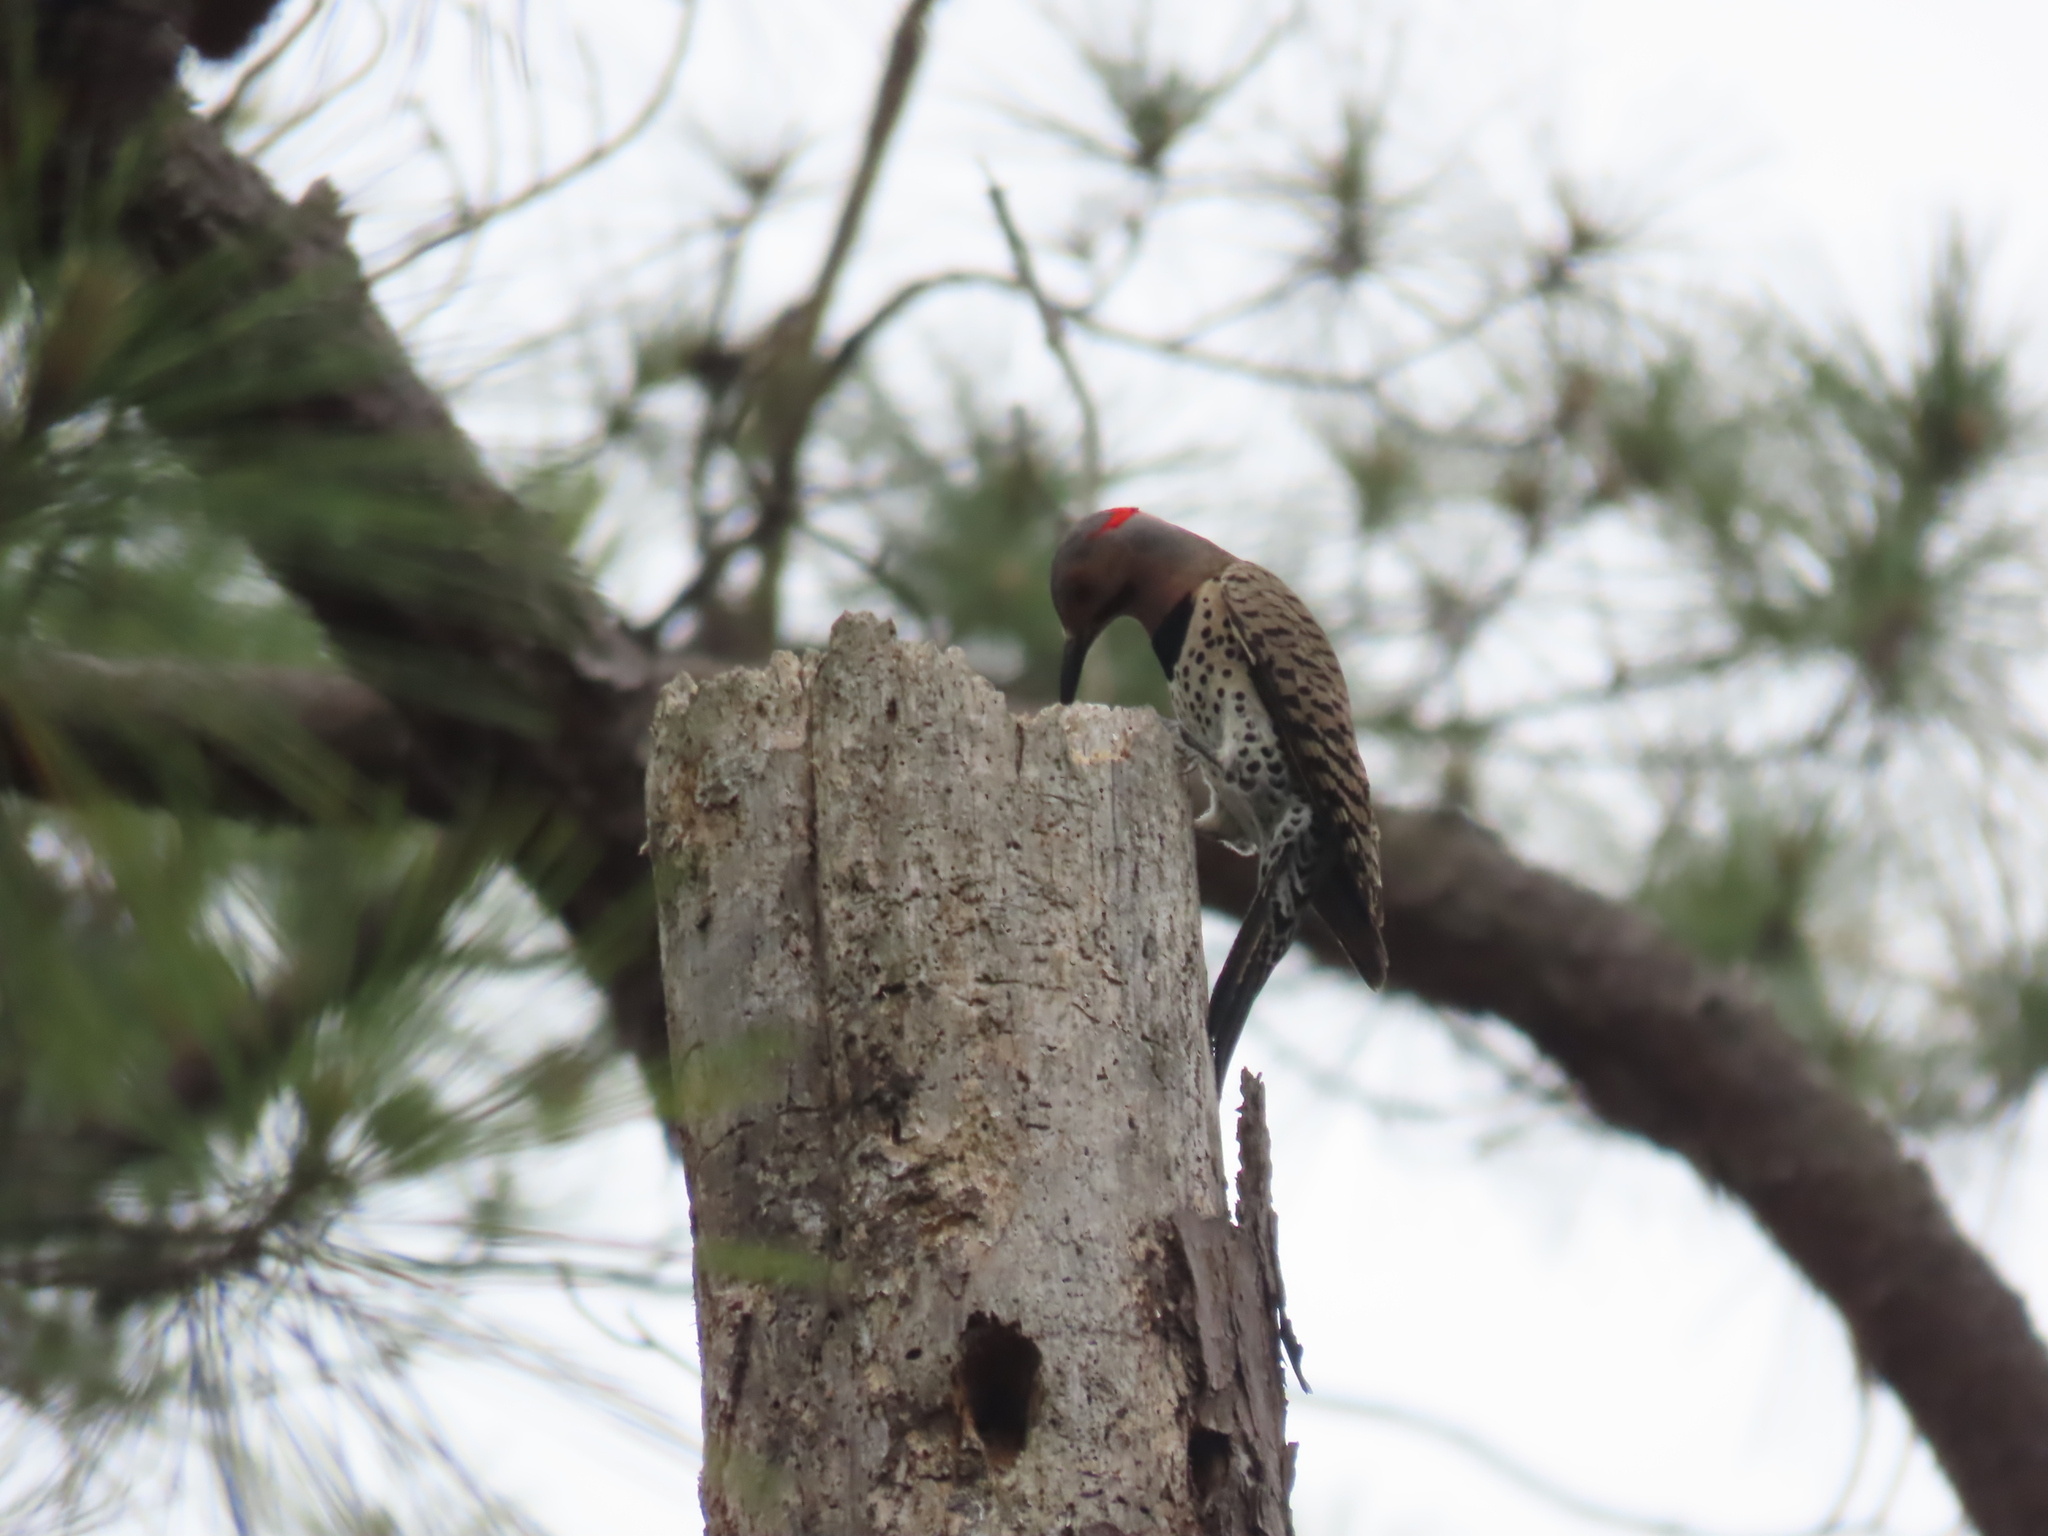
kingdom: Animalia
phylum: Chordata
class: Aves
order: Piciformes
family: Picidae
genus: Colaptes
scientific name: Colaptes auratus
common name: Northern flicker
